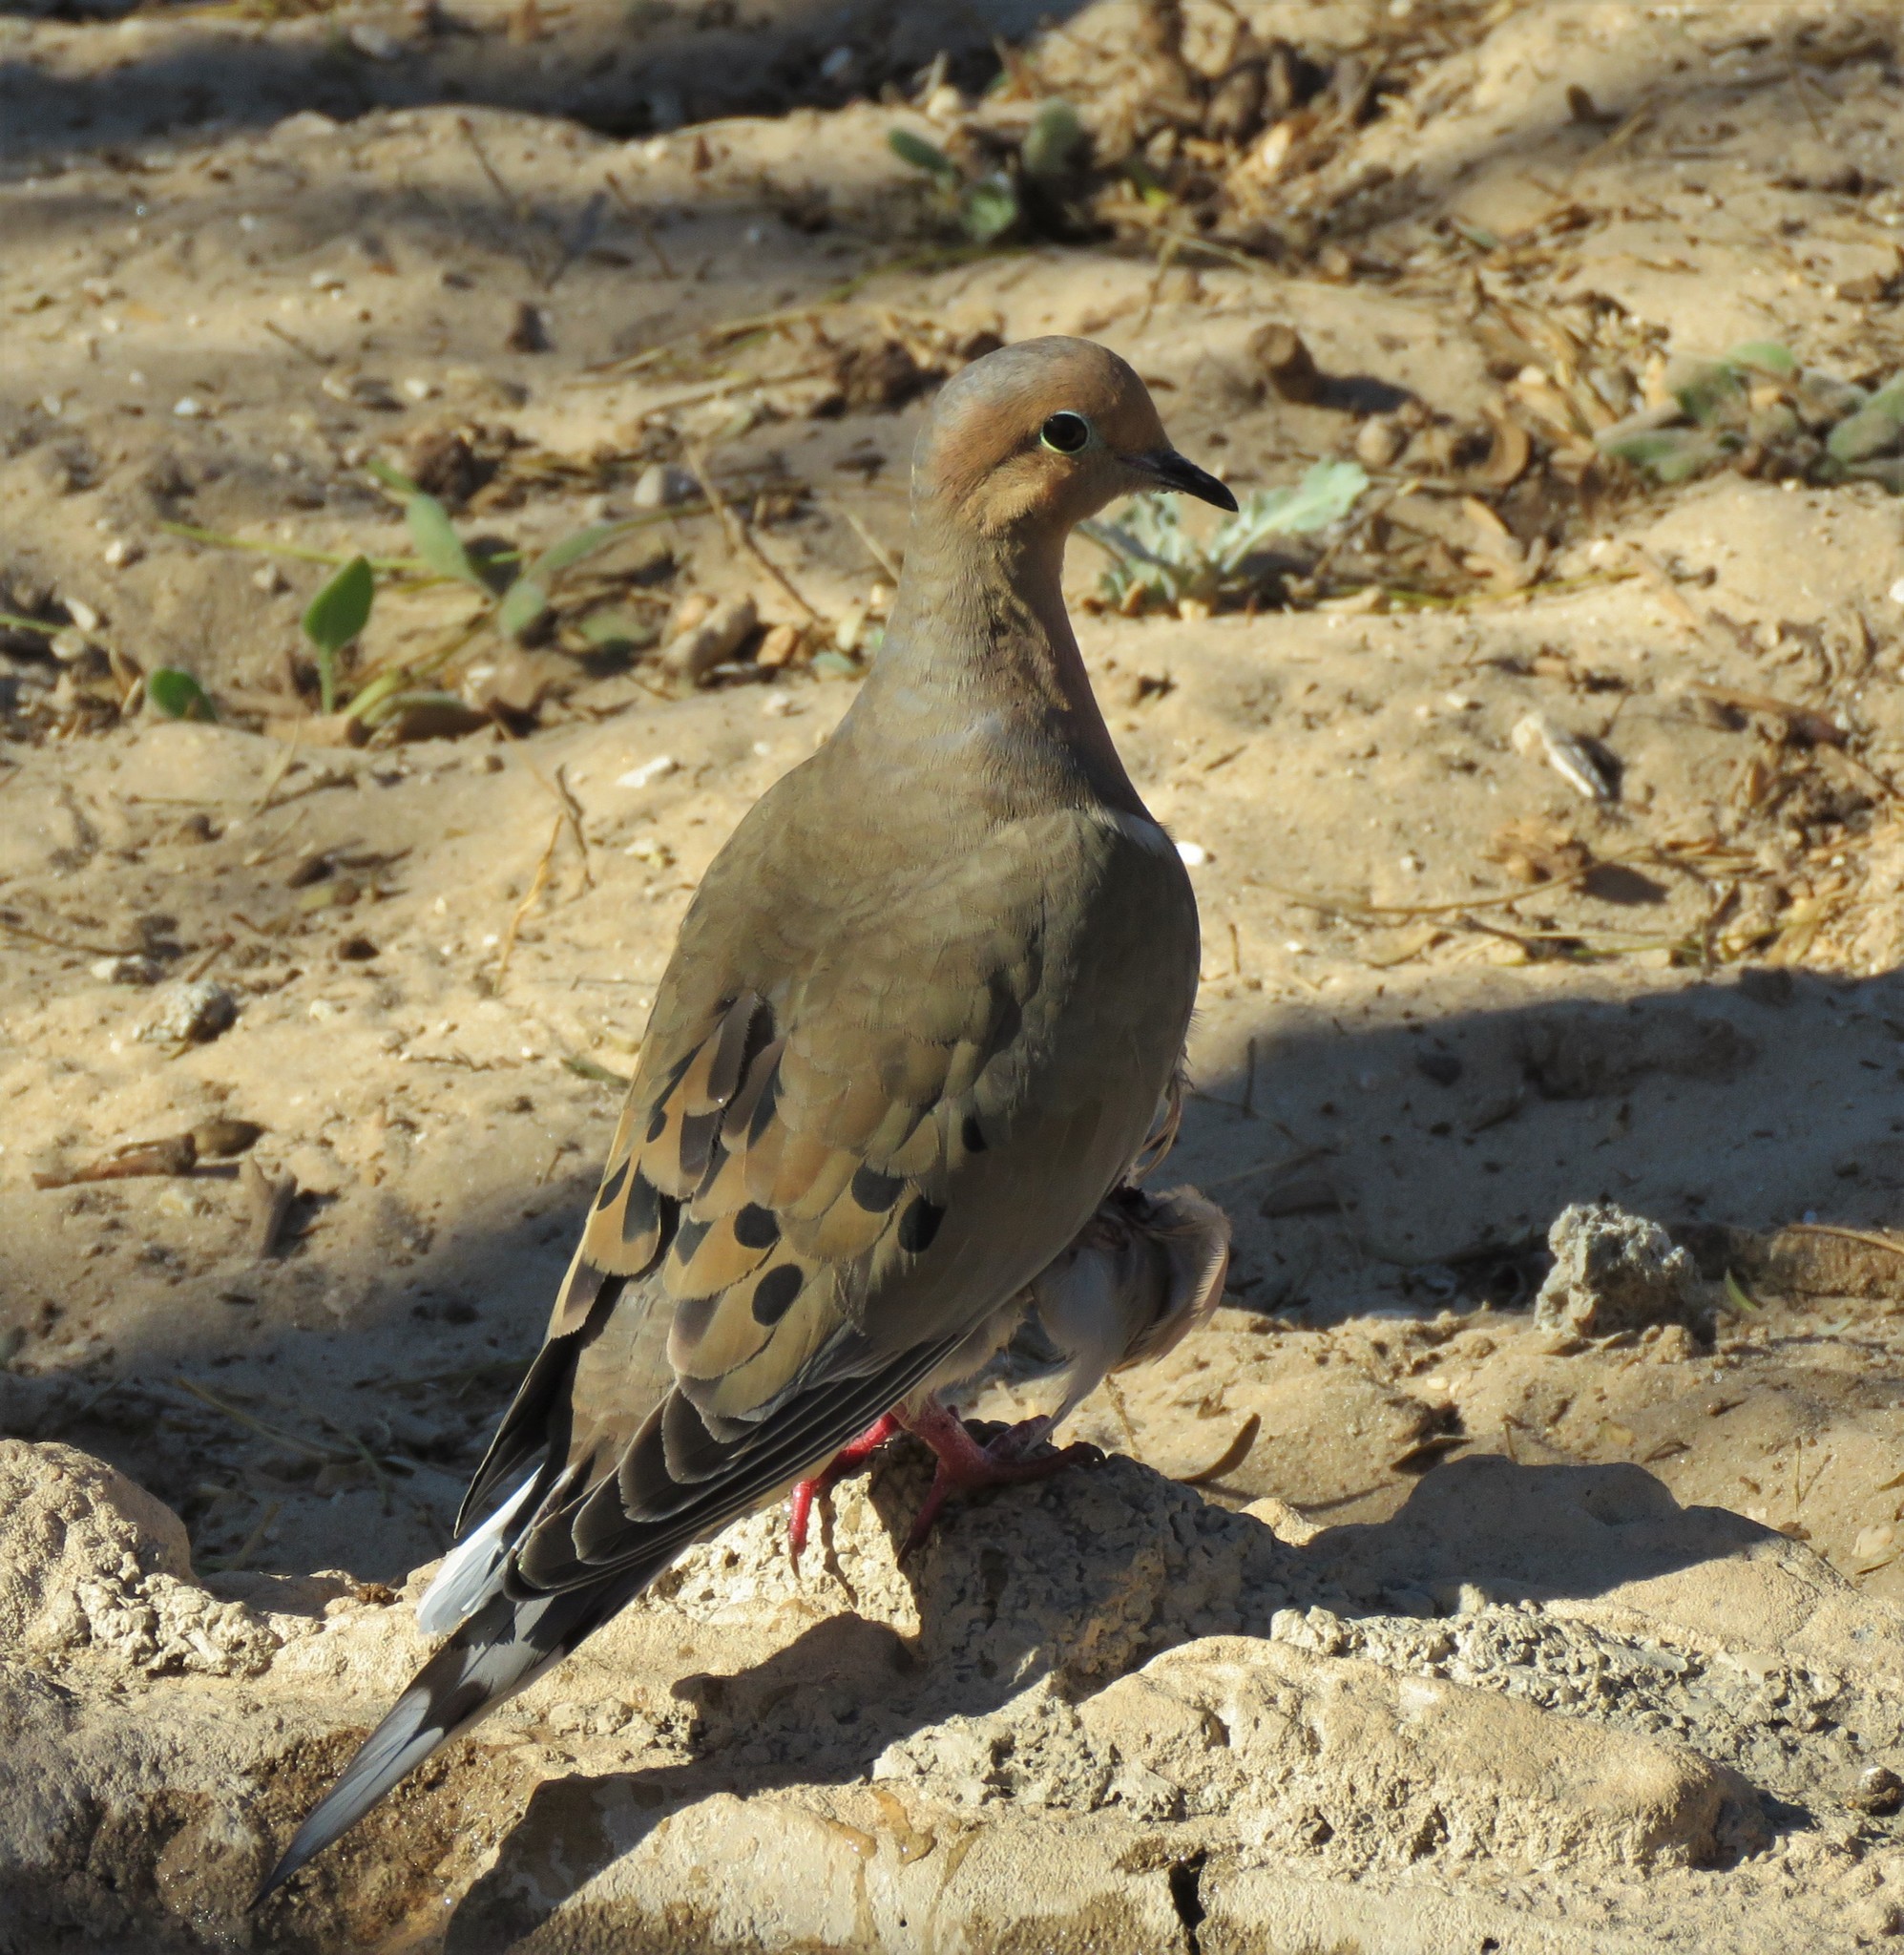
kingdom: Animalia
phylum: Chordata
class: Aves
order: Columbiformes
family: Columbidae
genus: Zenaida
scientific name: Zenaida macroura
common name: Mourning dove
